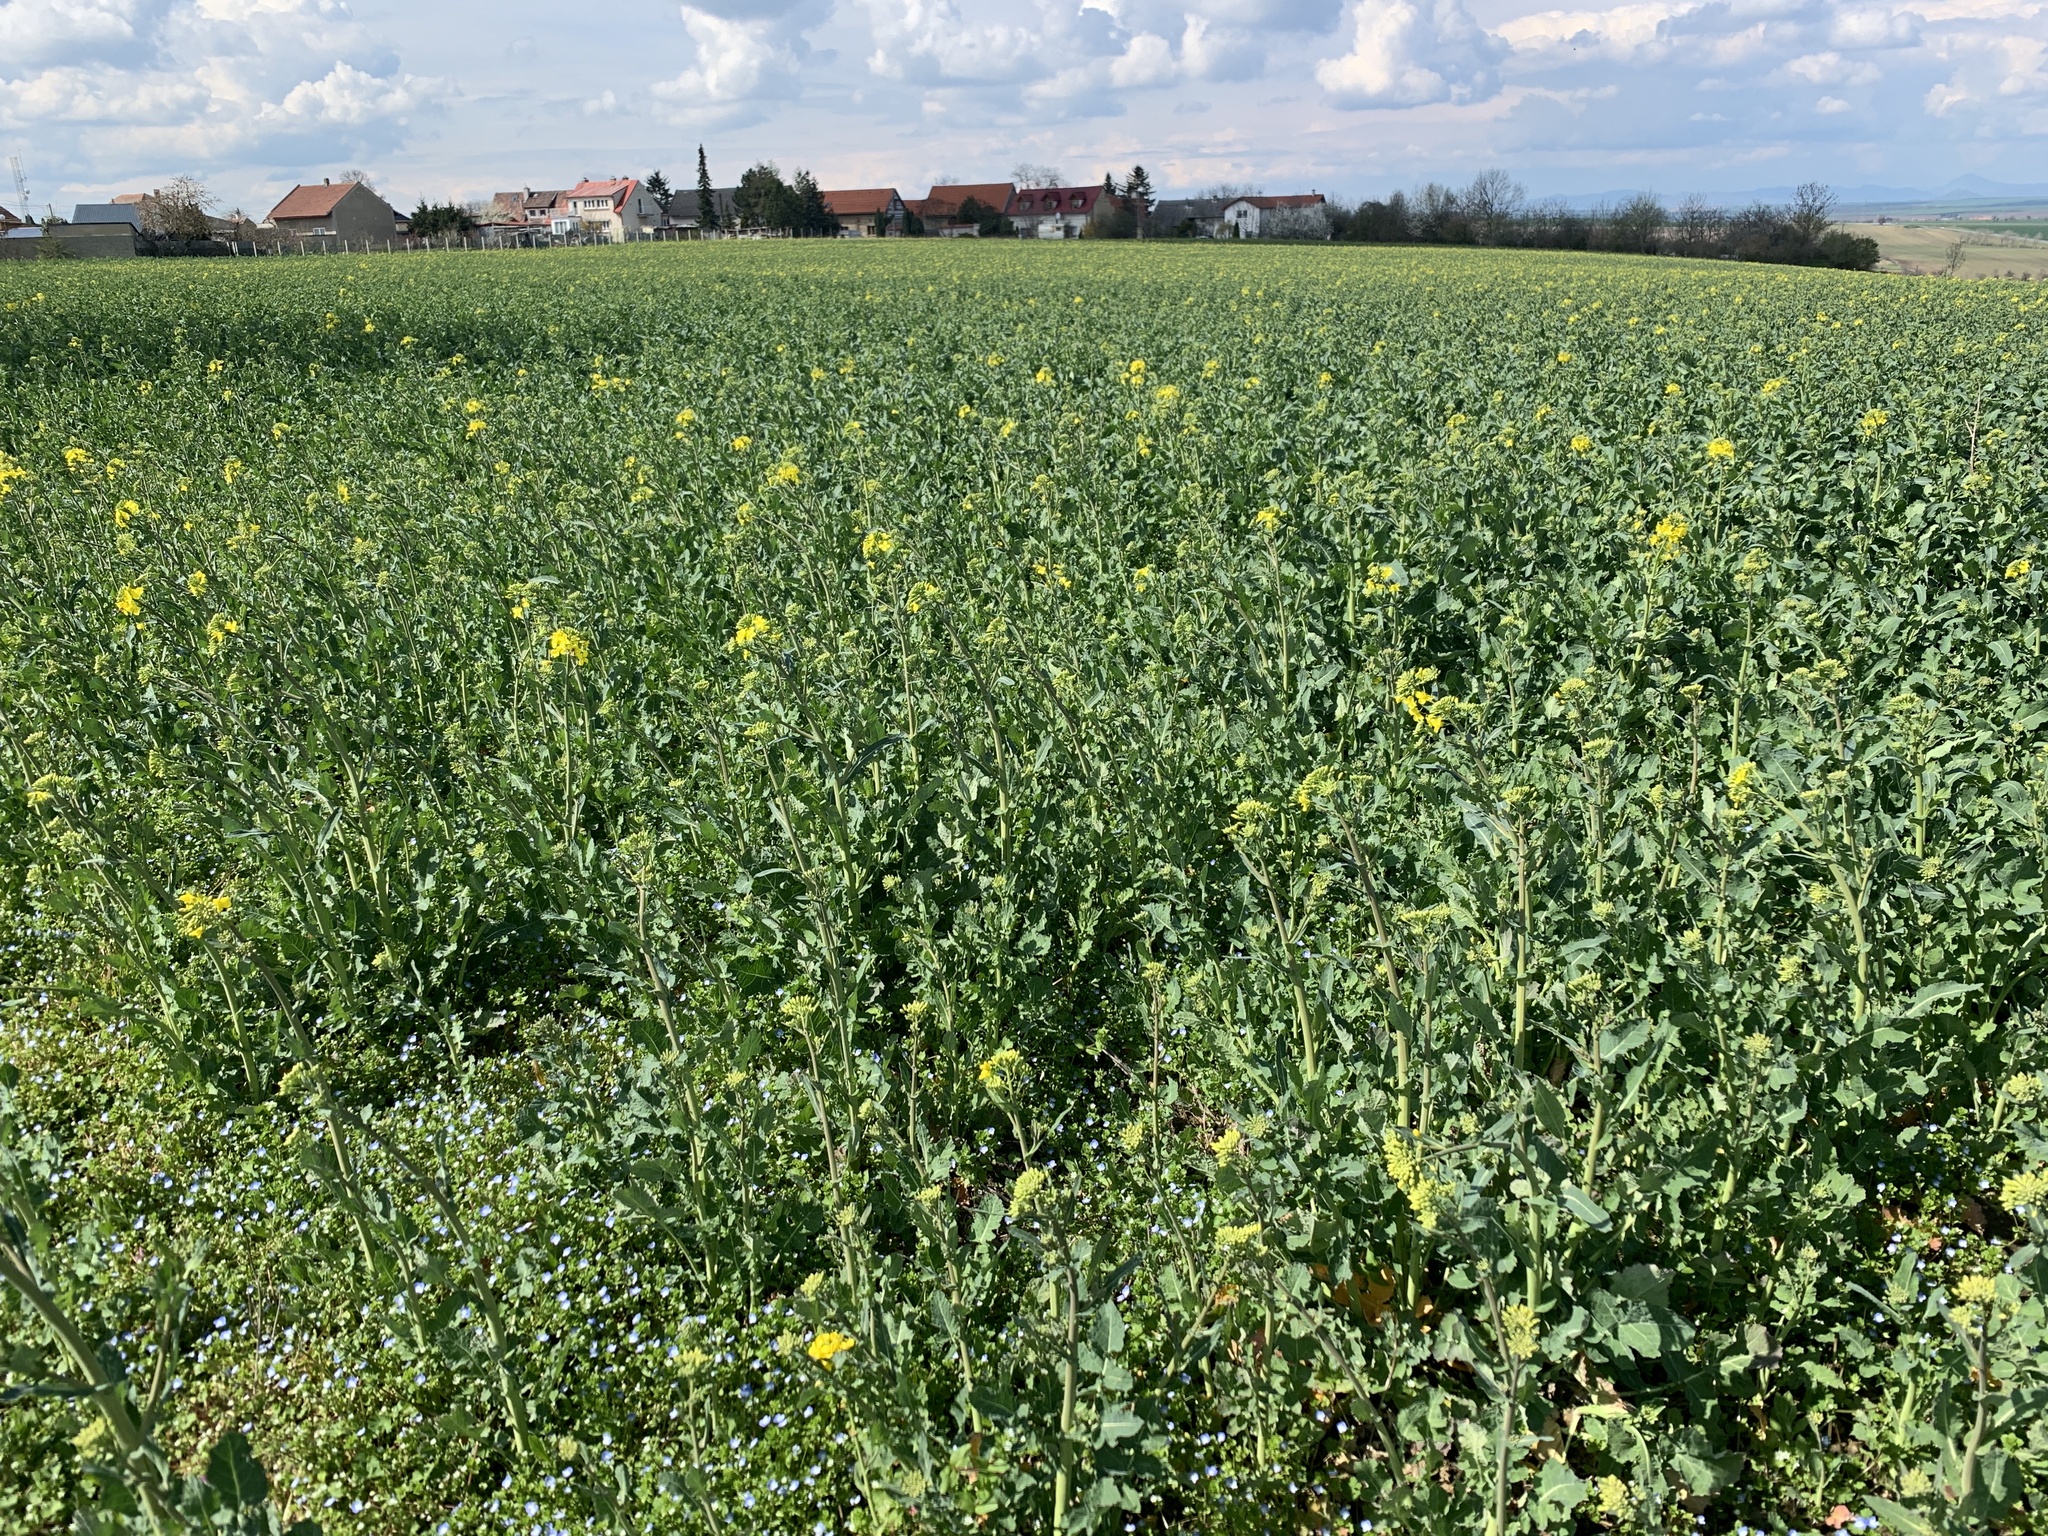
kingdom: Plantae
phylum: Tracheophyta
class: Magnoliopsida
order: Brassicales
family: Brassicaceae
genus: Brassica
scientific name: Brassica napus
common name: Rape
